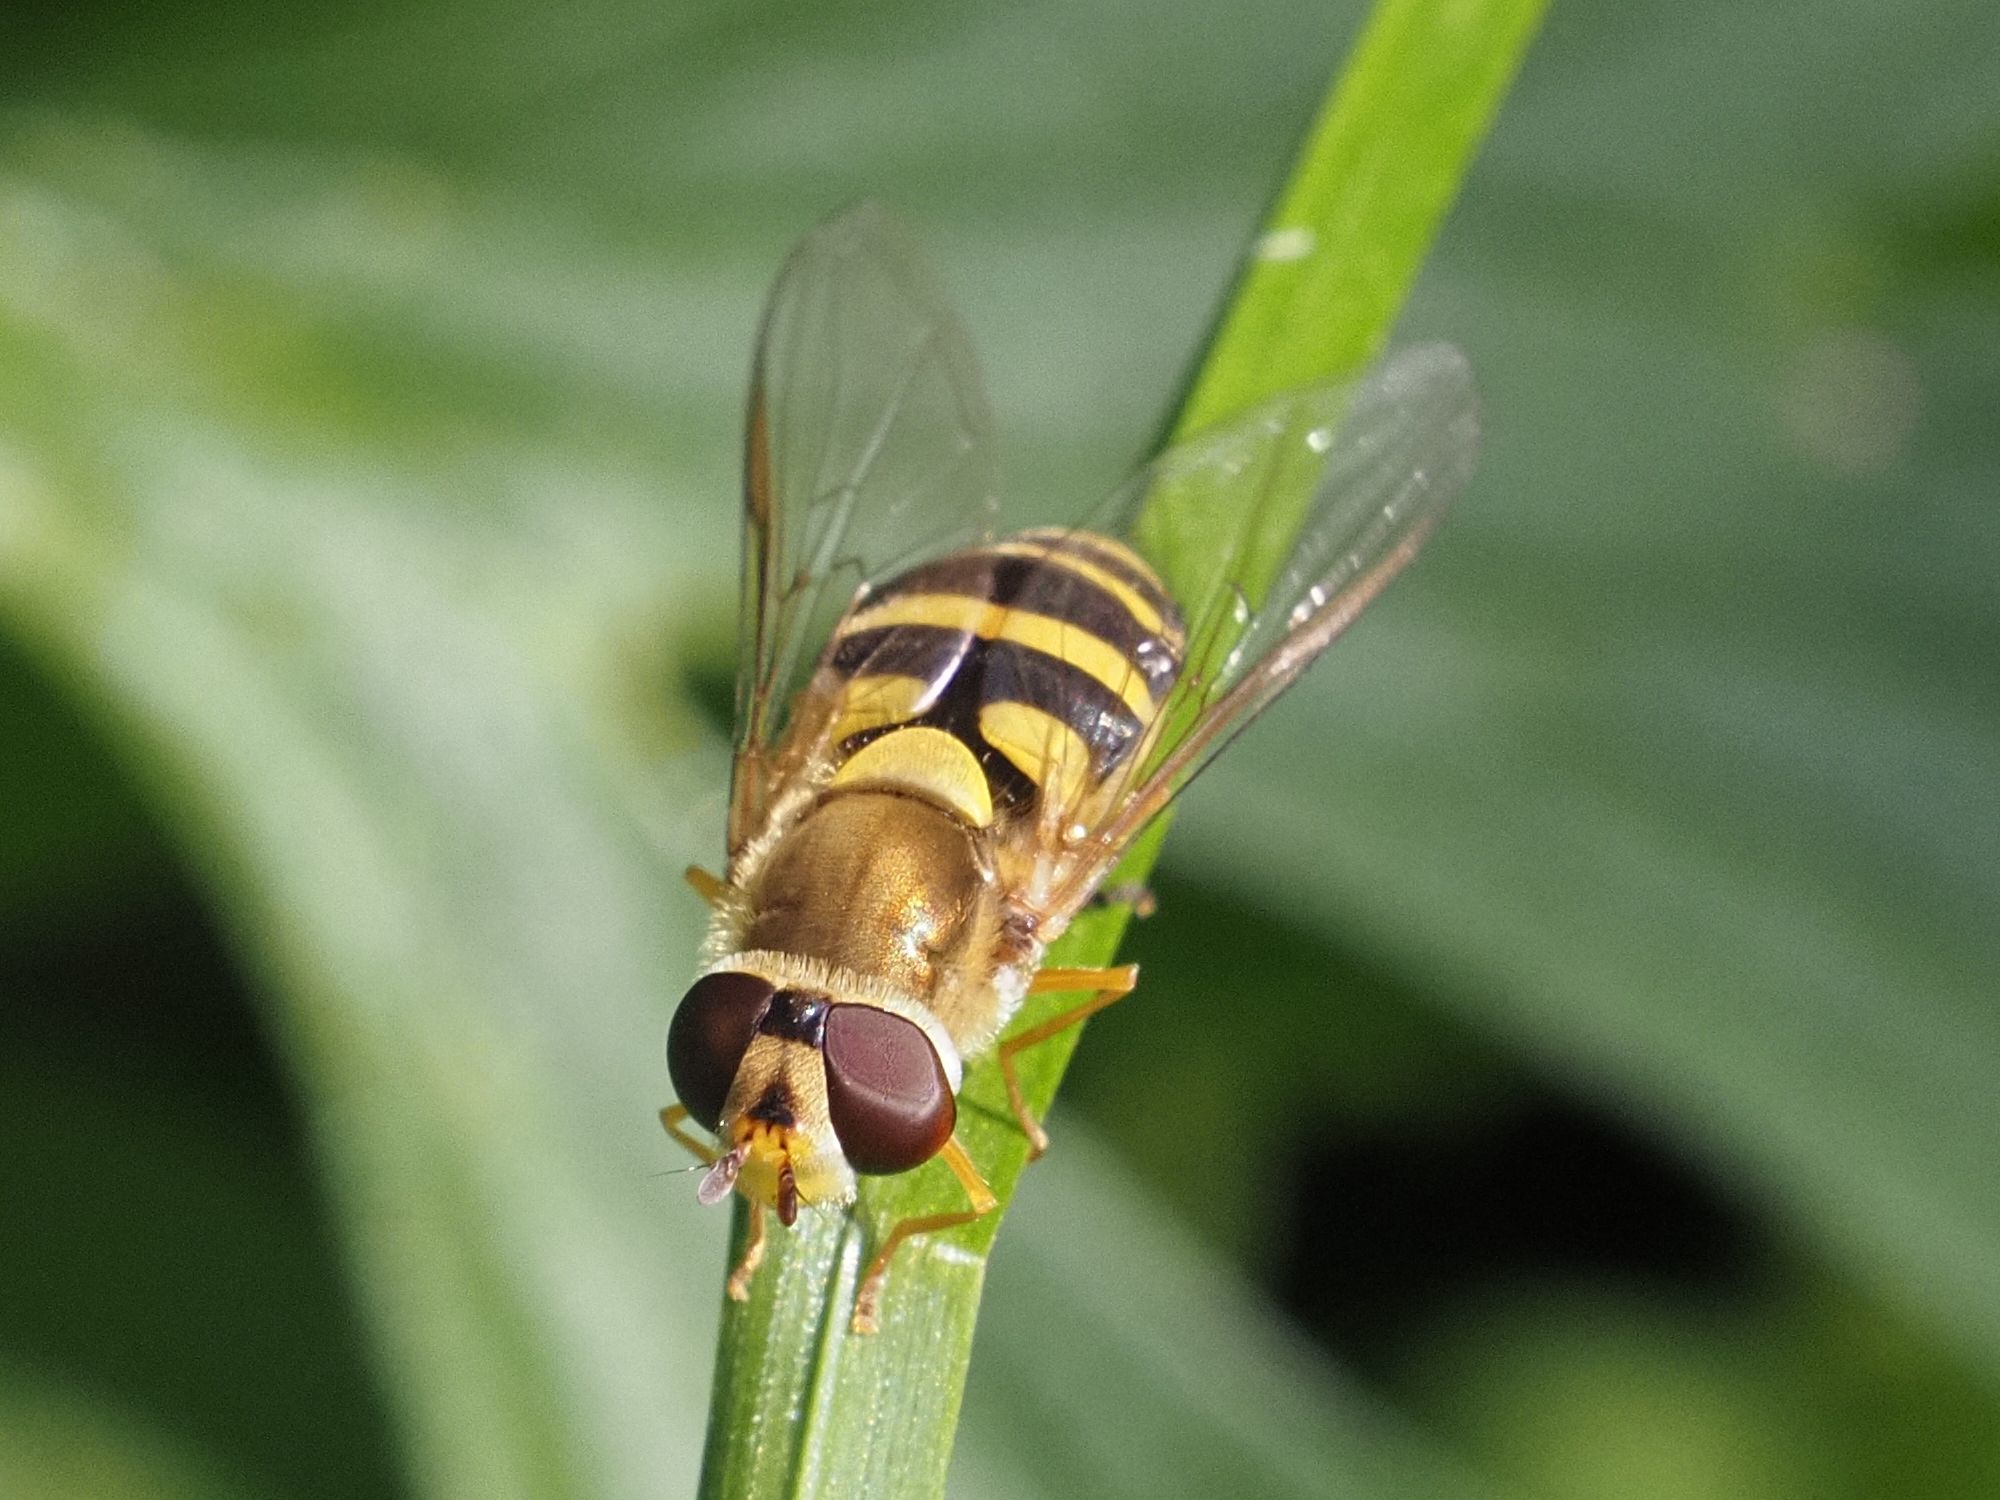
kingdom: Animalia
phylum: Arthropoda
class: Insecta
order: Diptera
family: Syrphidae
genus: Syrphus
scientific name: Syrphus
